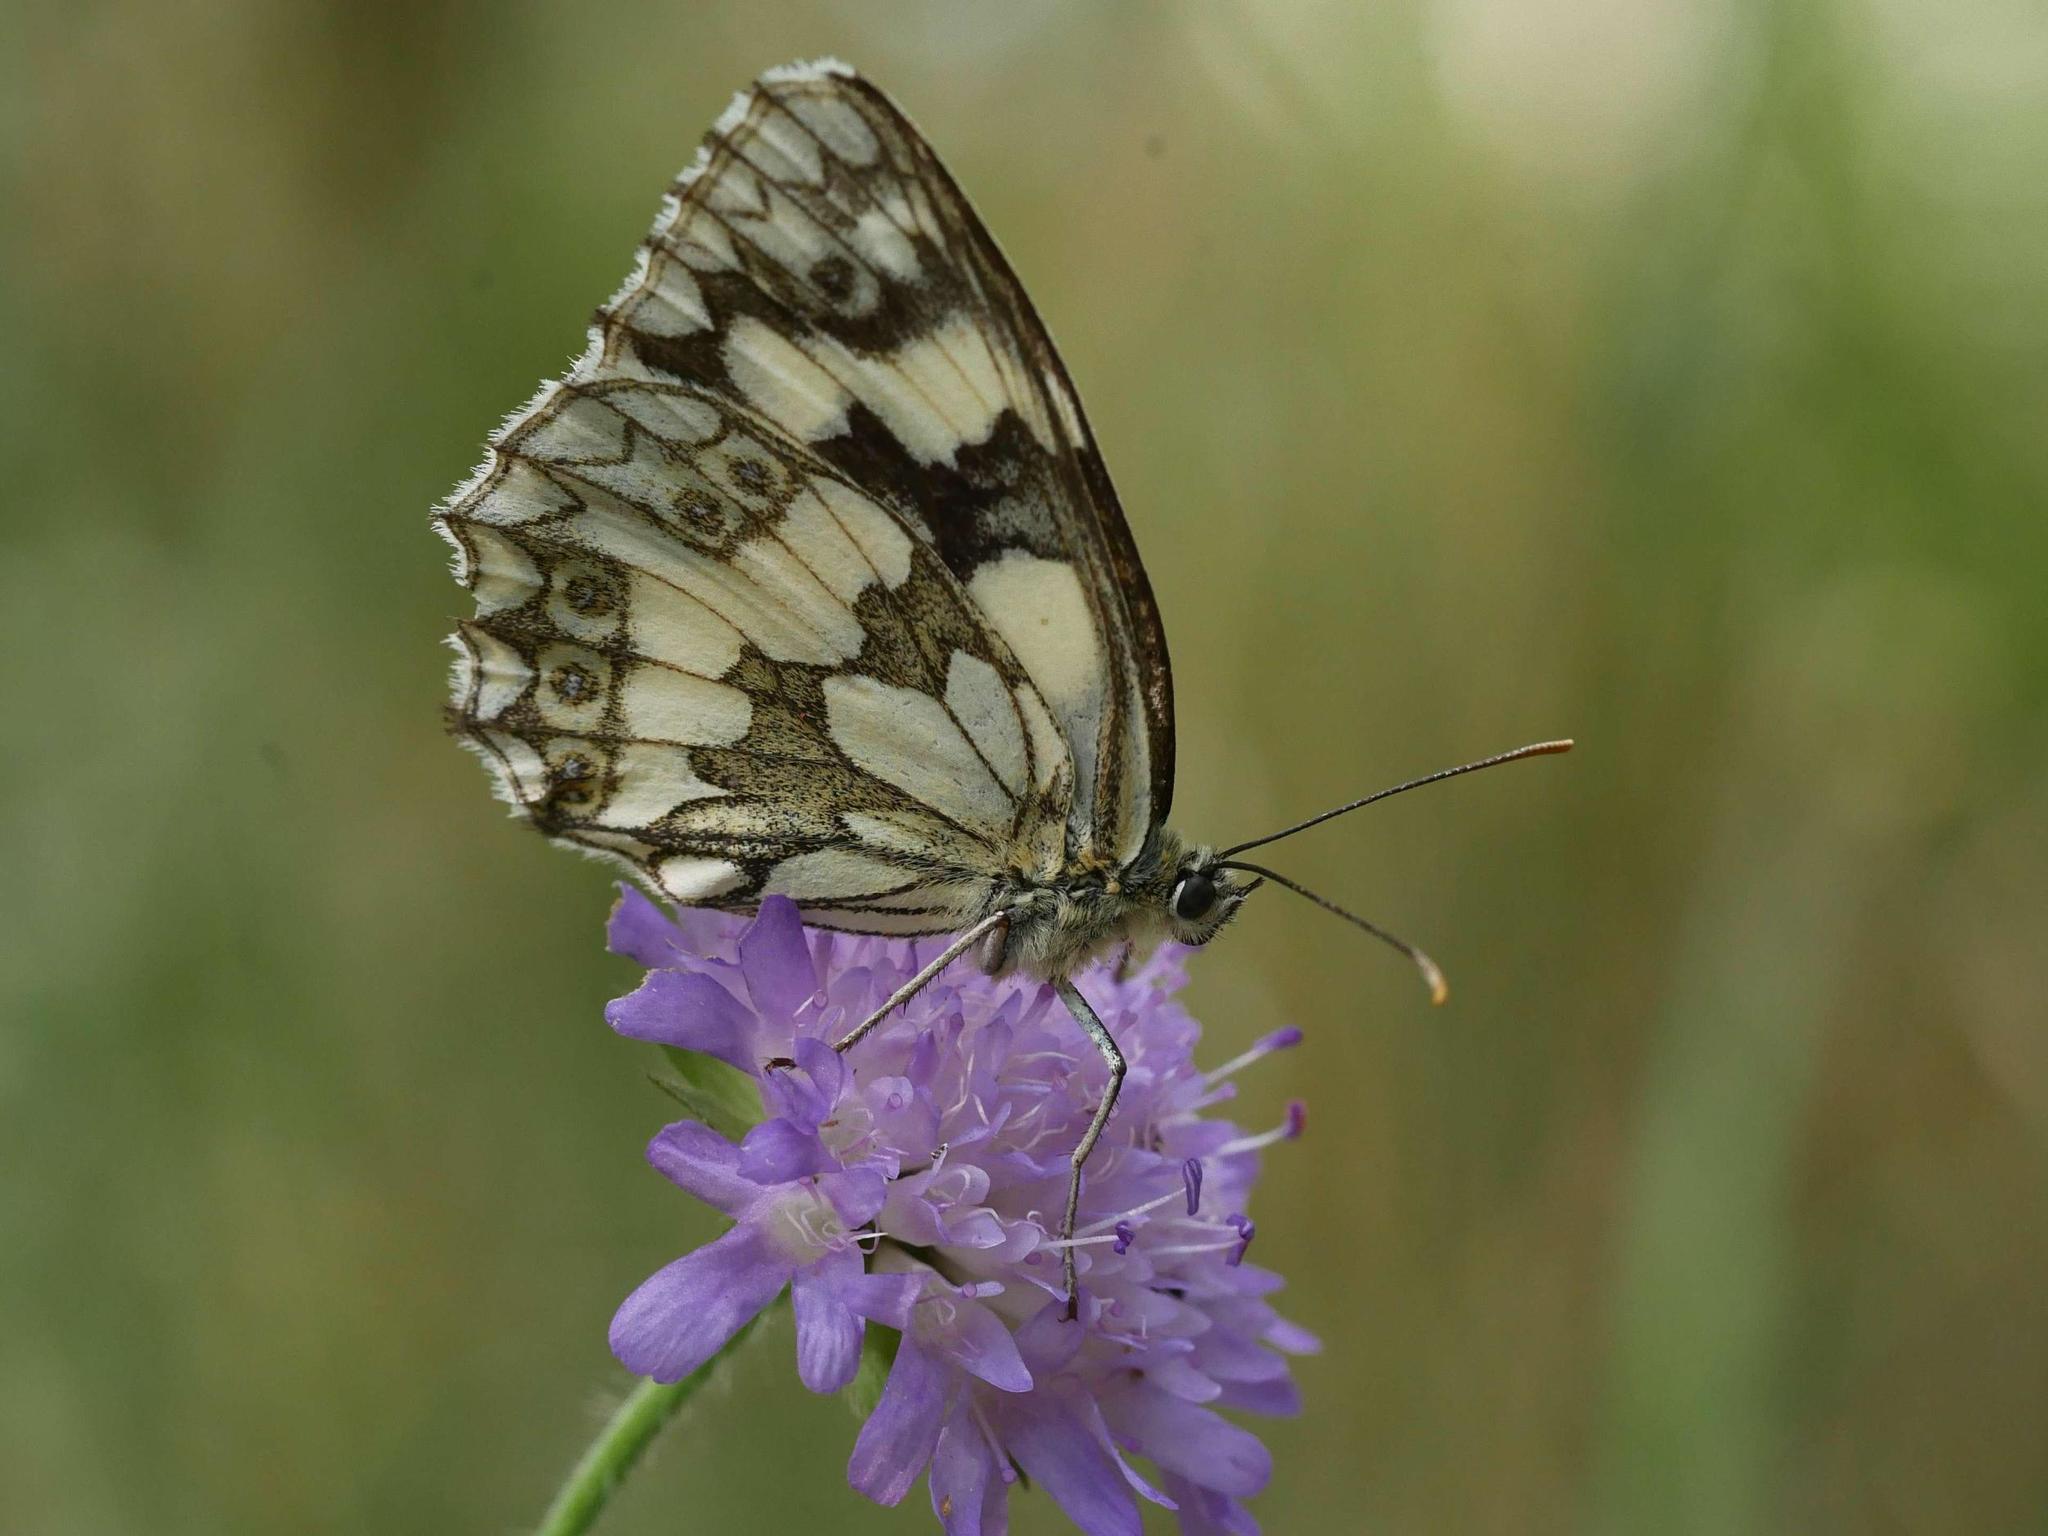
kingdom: Animalia
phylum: Arthropoda
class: Insecta
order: Lepidoptera
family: Nymphalidae
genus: Melanargia
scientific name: Melanargia galathea
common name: Marbled white
